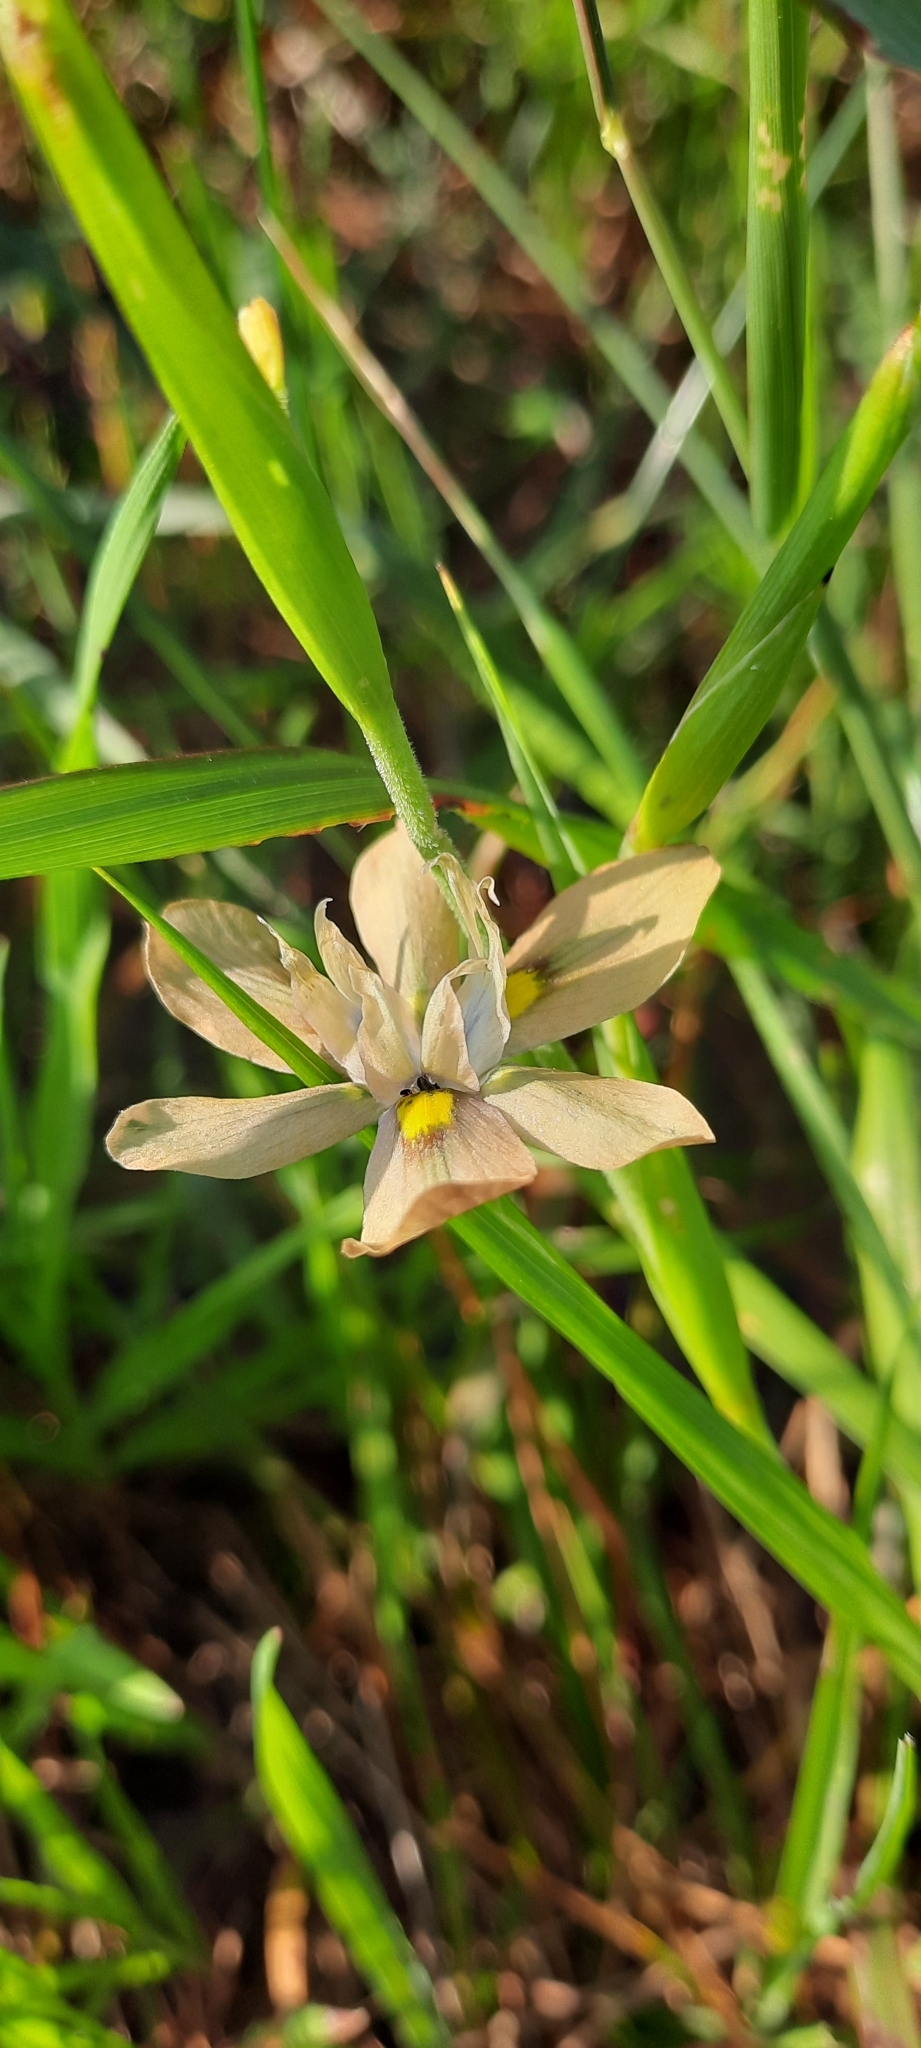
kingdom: Plantae
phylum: Tracheophyta
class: Liliopsida
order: Asparagales
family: Iridaceae
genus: Moraea
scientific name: Moraea vegeta
